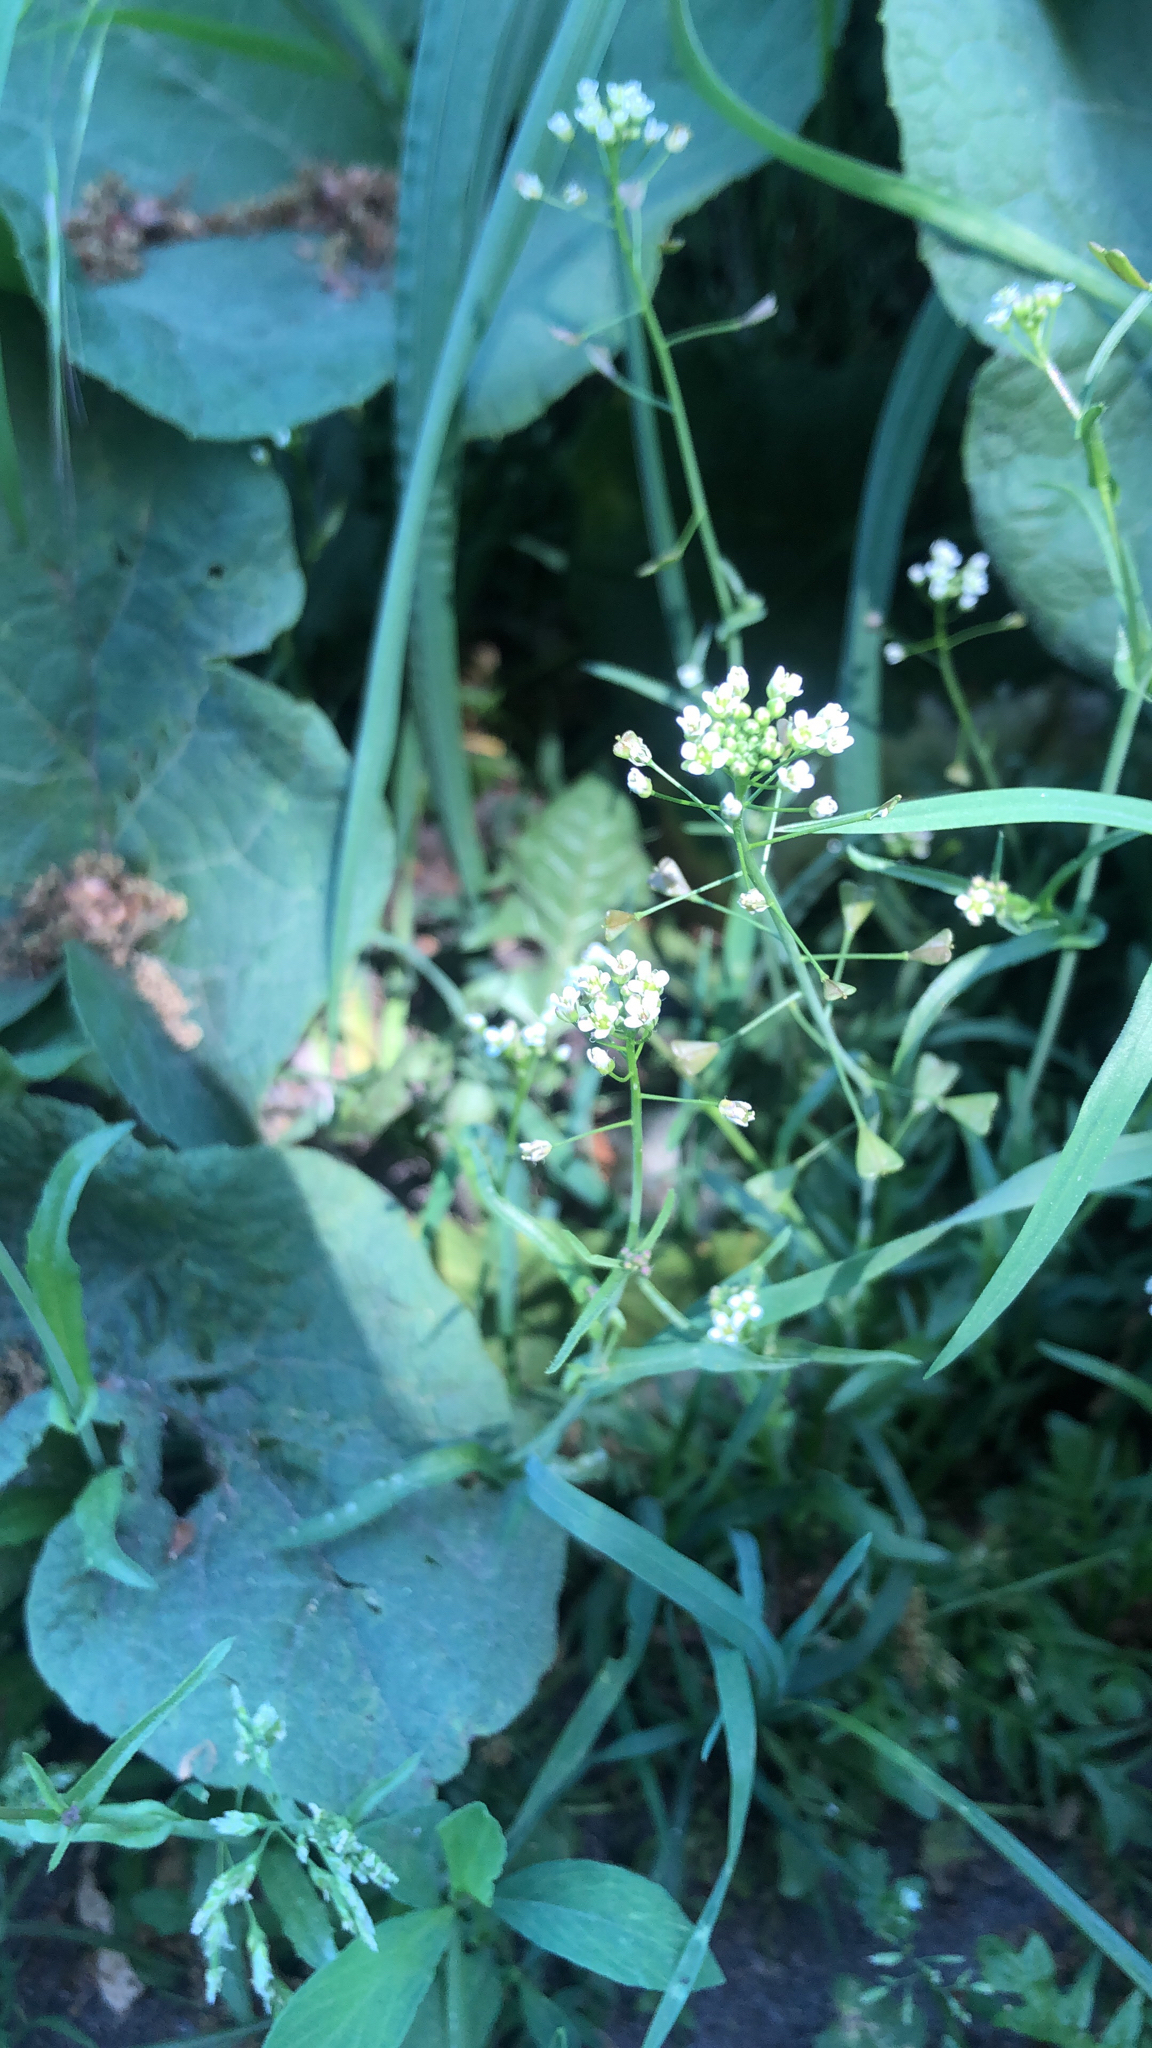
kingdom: Plantae
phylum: Tracheophyta
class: Magnoliopsida
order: Brassicales
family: Brassicaceae
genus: Capsella
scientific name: Capsella bursa-pastoris
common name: Shepherd's purse
